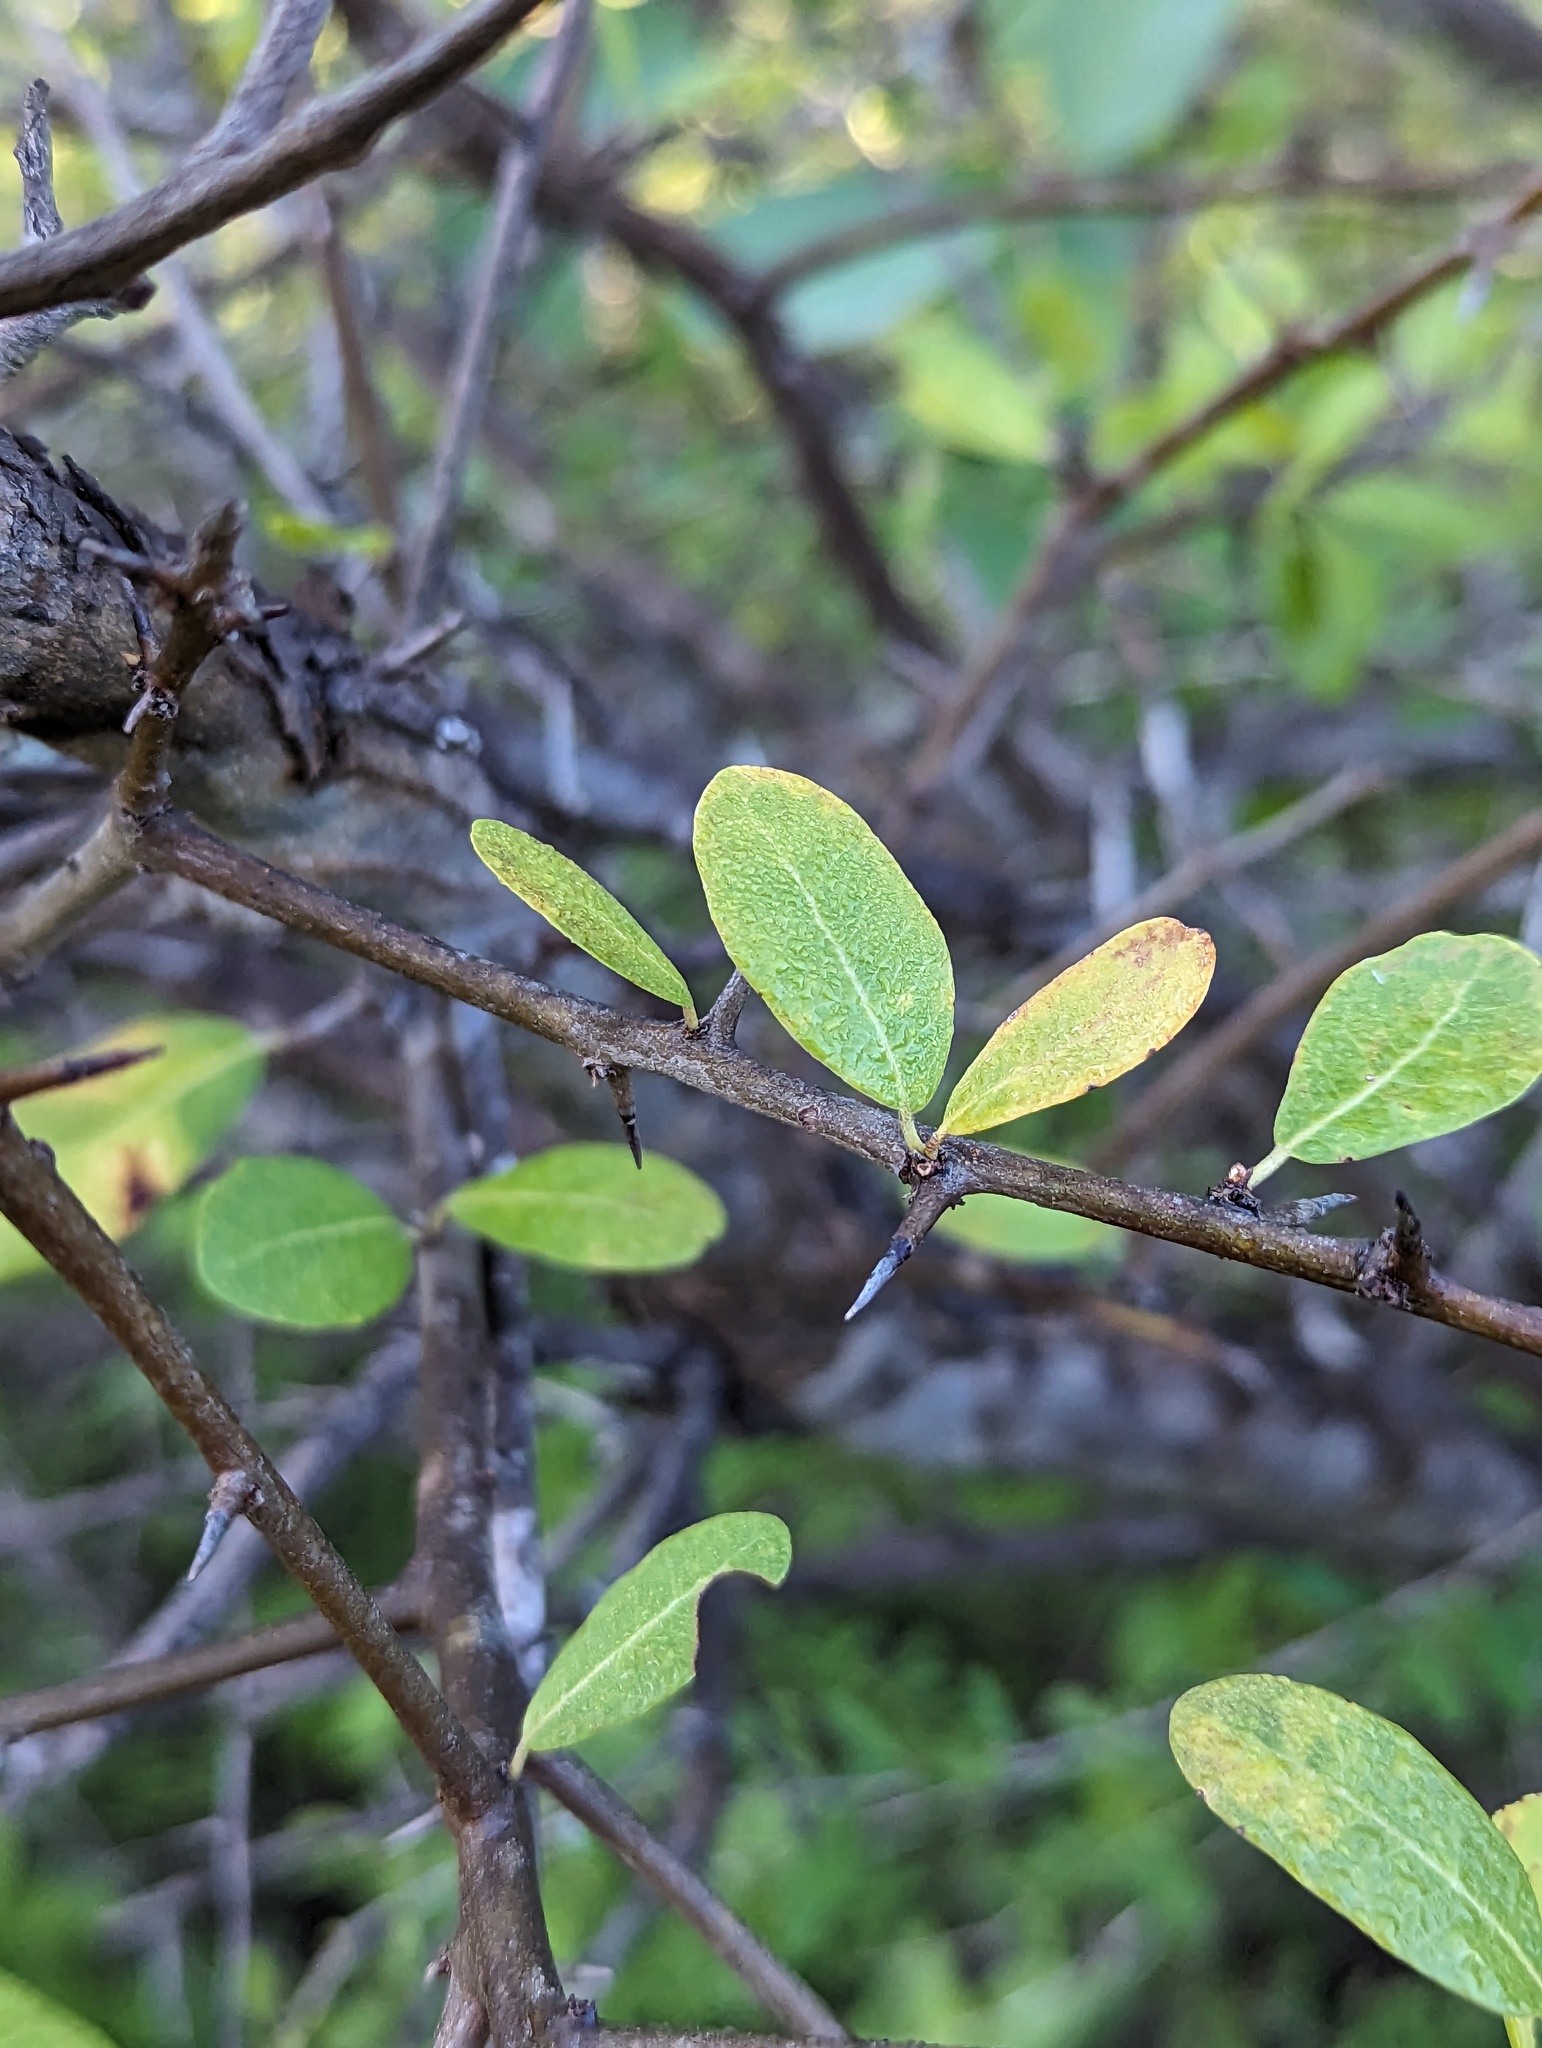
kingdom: Plantae
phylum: Tracheophyta
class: Magnoliopsida
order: Ericales
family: Sapotaceae
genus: Sideroxylon
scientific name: Sideroxylon peninsulare
